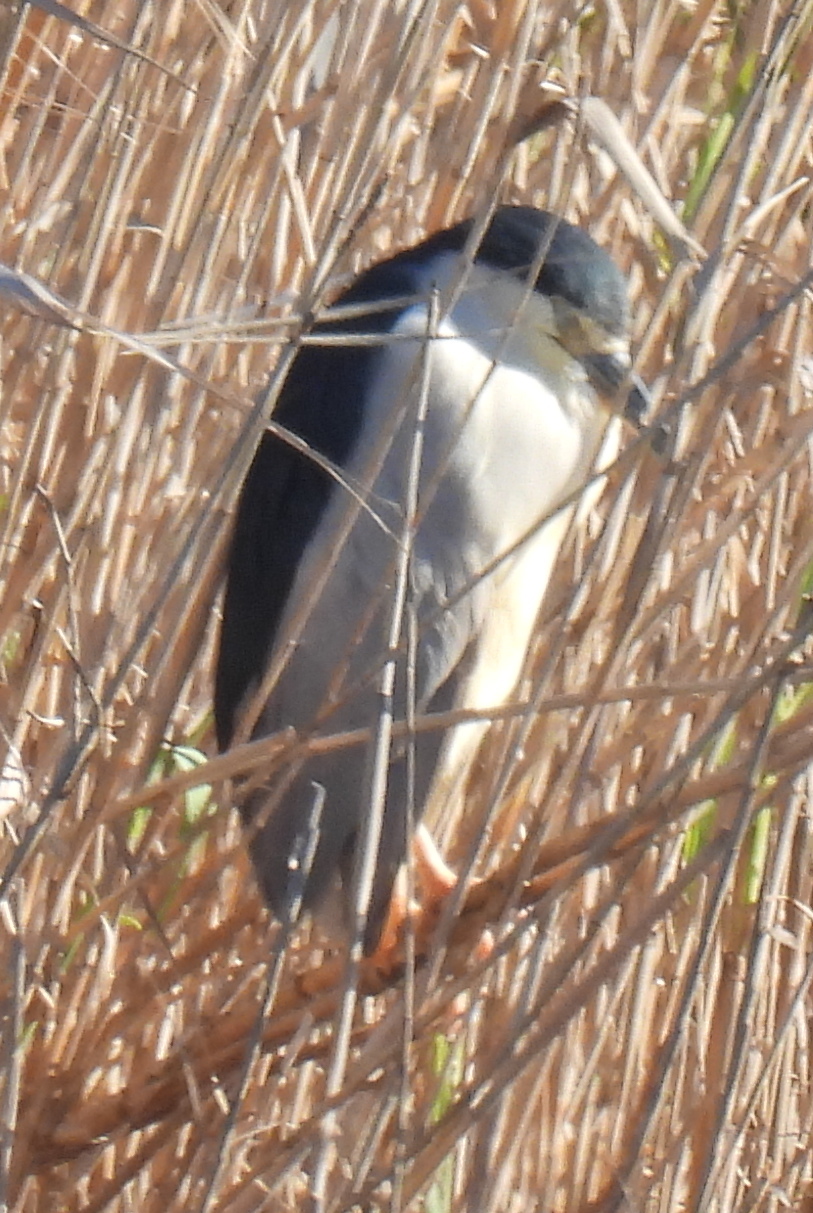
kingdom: Animalia
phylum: Chordata
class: Aves
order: Pelecaniformes
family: Ardeidae
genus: Nycticorax
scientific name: Nycticorax nycticorax
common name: Black-crowned night heron
